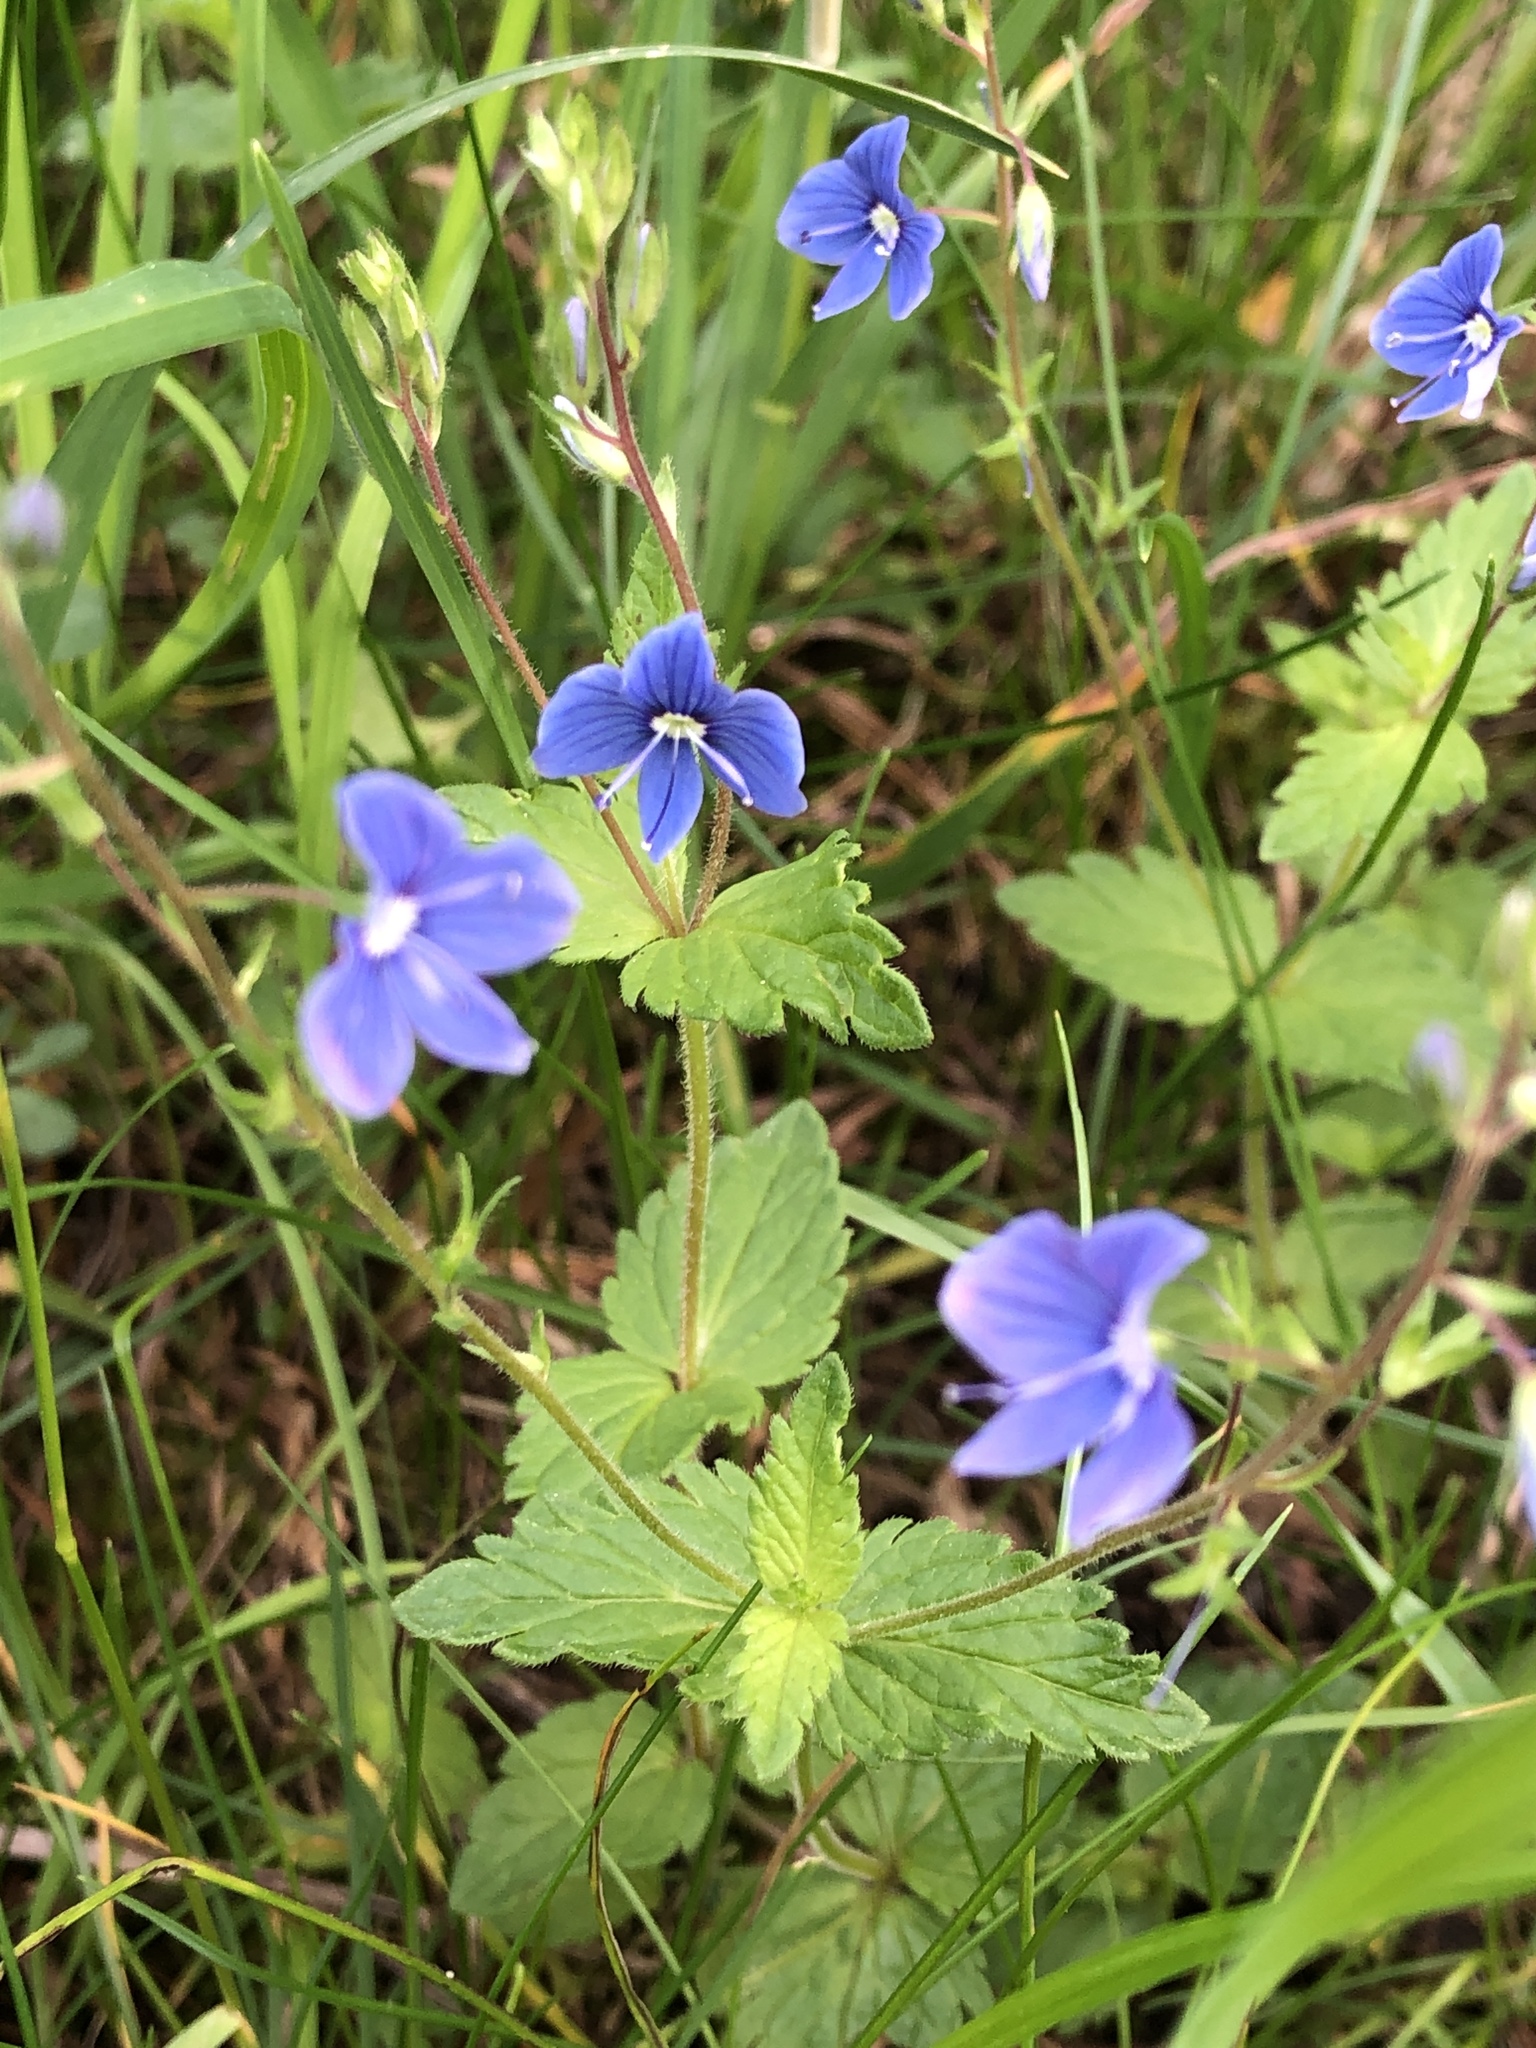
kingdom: Plantae
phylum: Tracheophyta
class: Magnoliopsida
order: Lamiales
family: Plantaginaceae
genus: Veronica
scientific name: Veronica chamaedrys
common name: Germander speedwell
